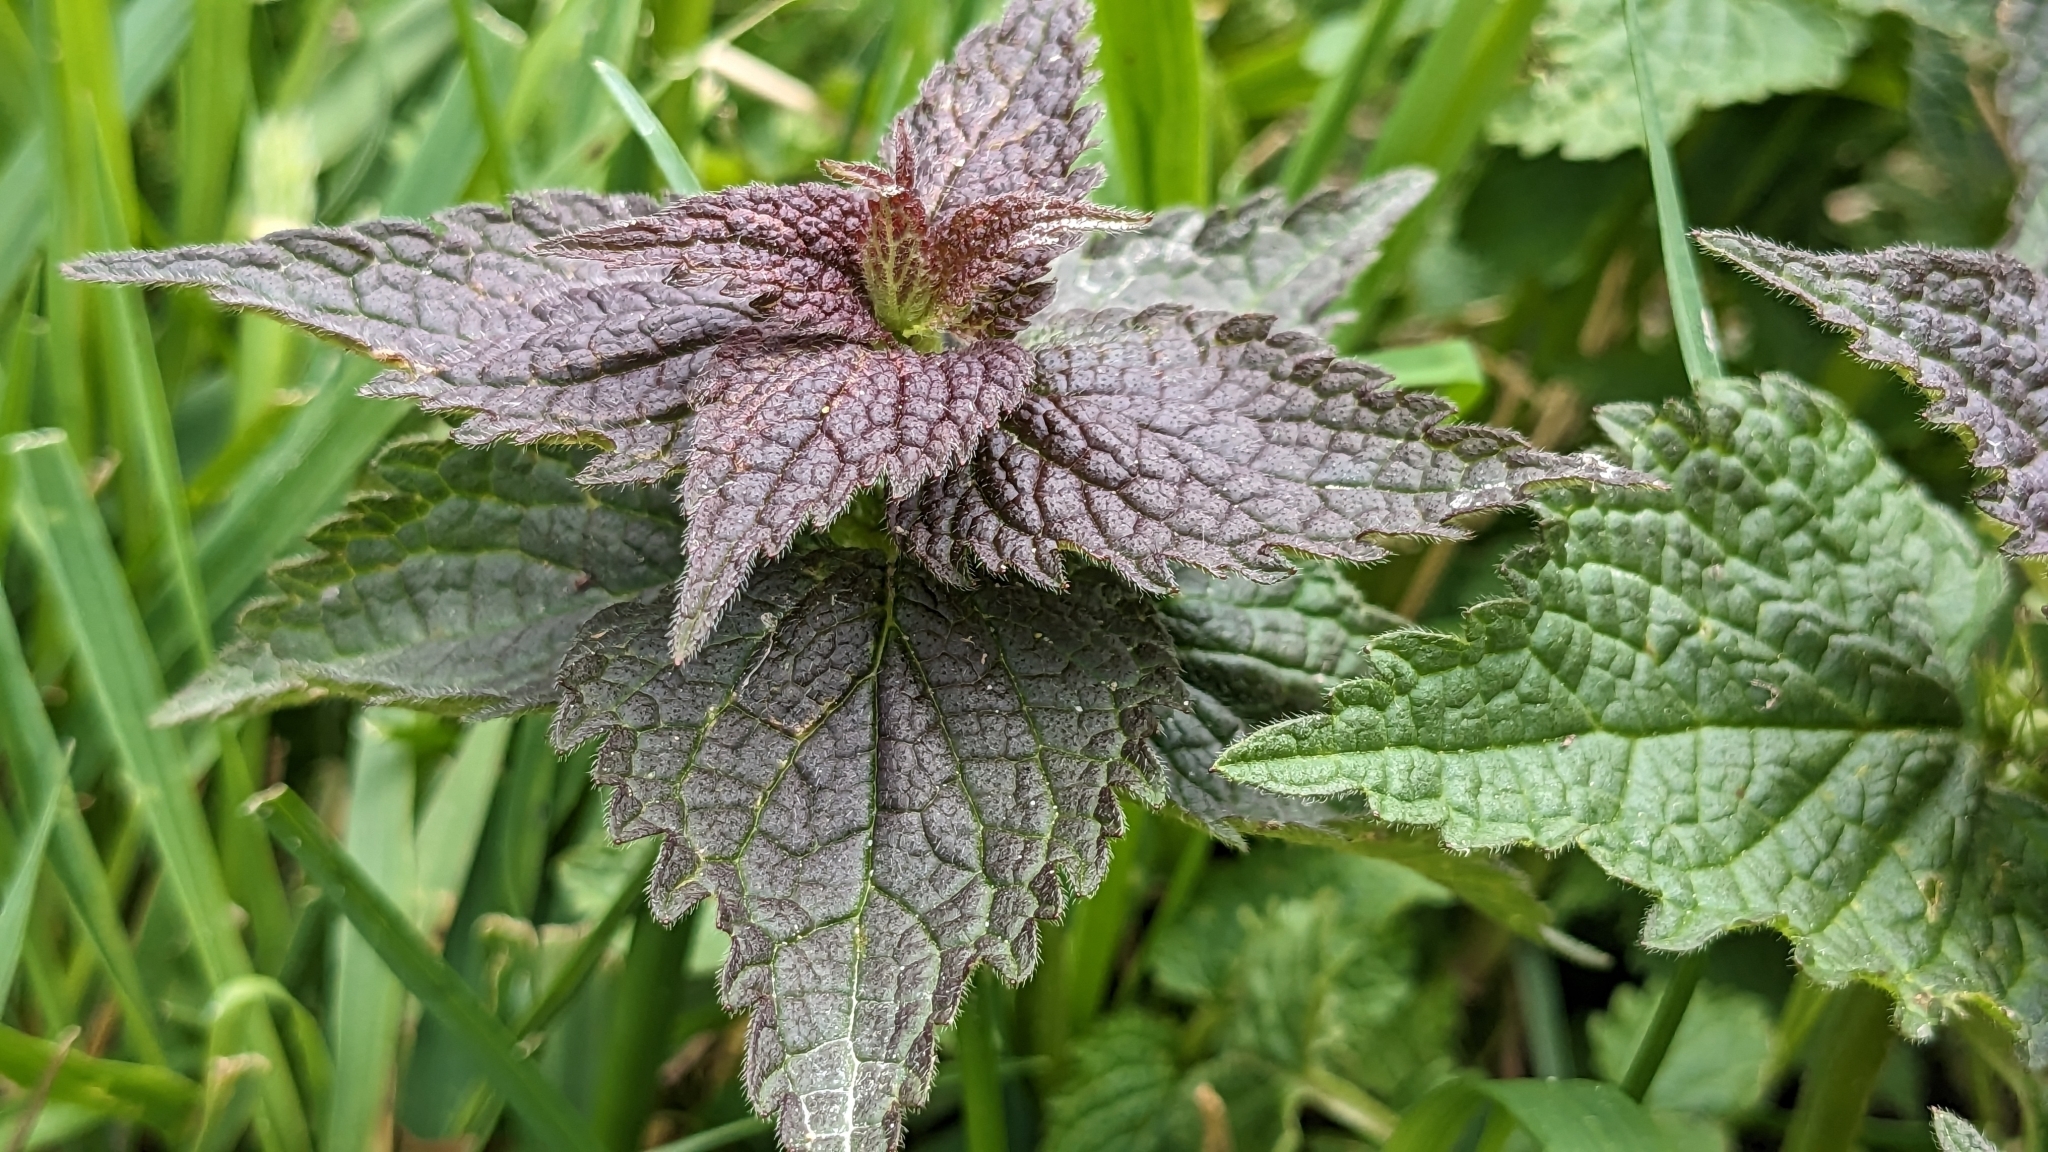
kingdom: Plantae
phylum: Tracheophyta
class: Magnoliopsida
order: Lamiales
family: Lamiaceae
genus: Lamium
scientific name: Lamium album
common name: White dead-nettle
